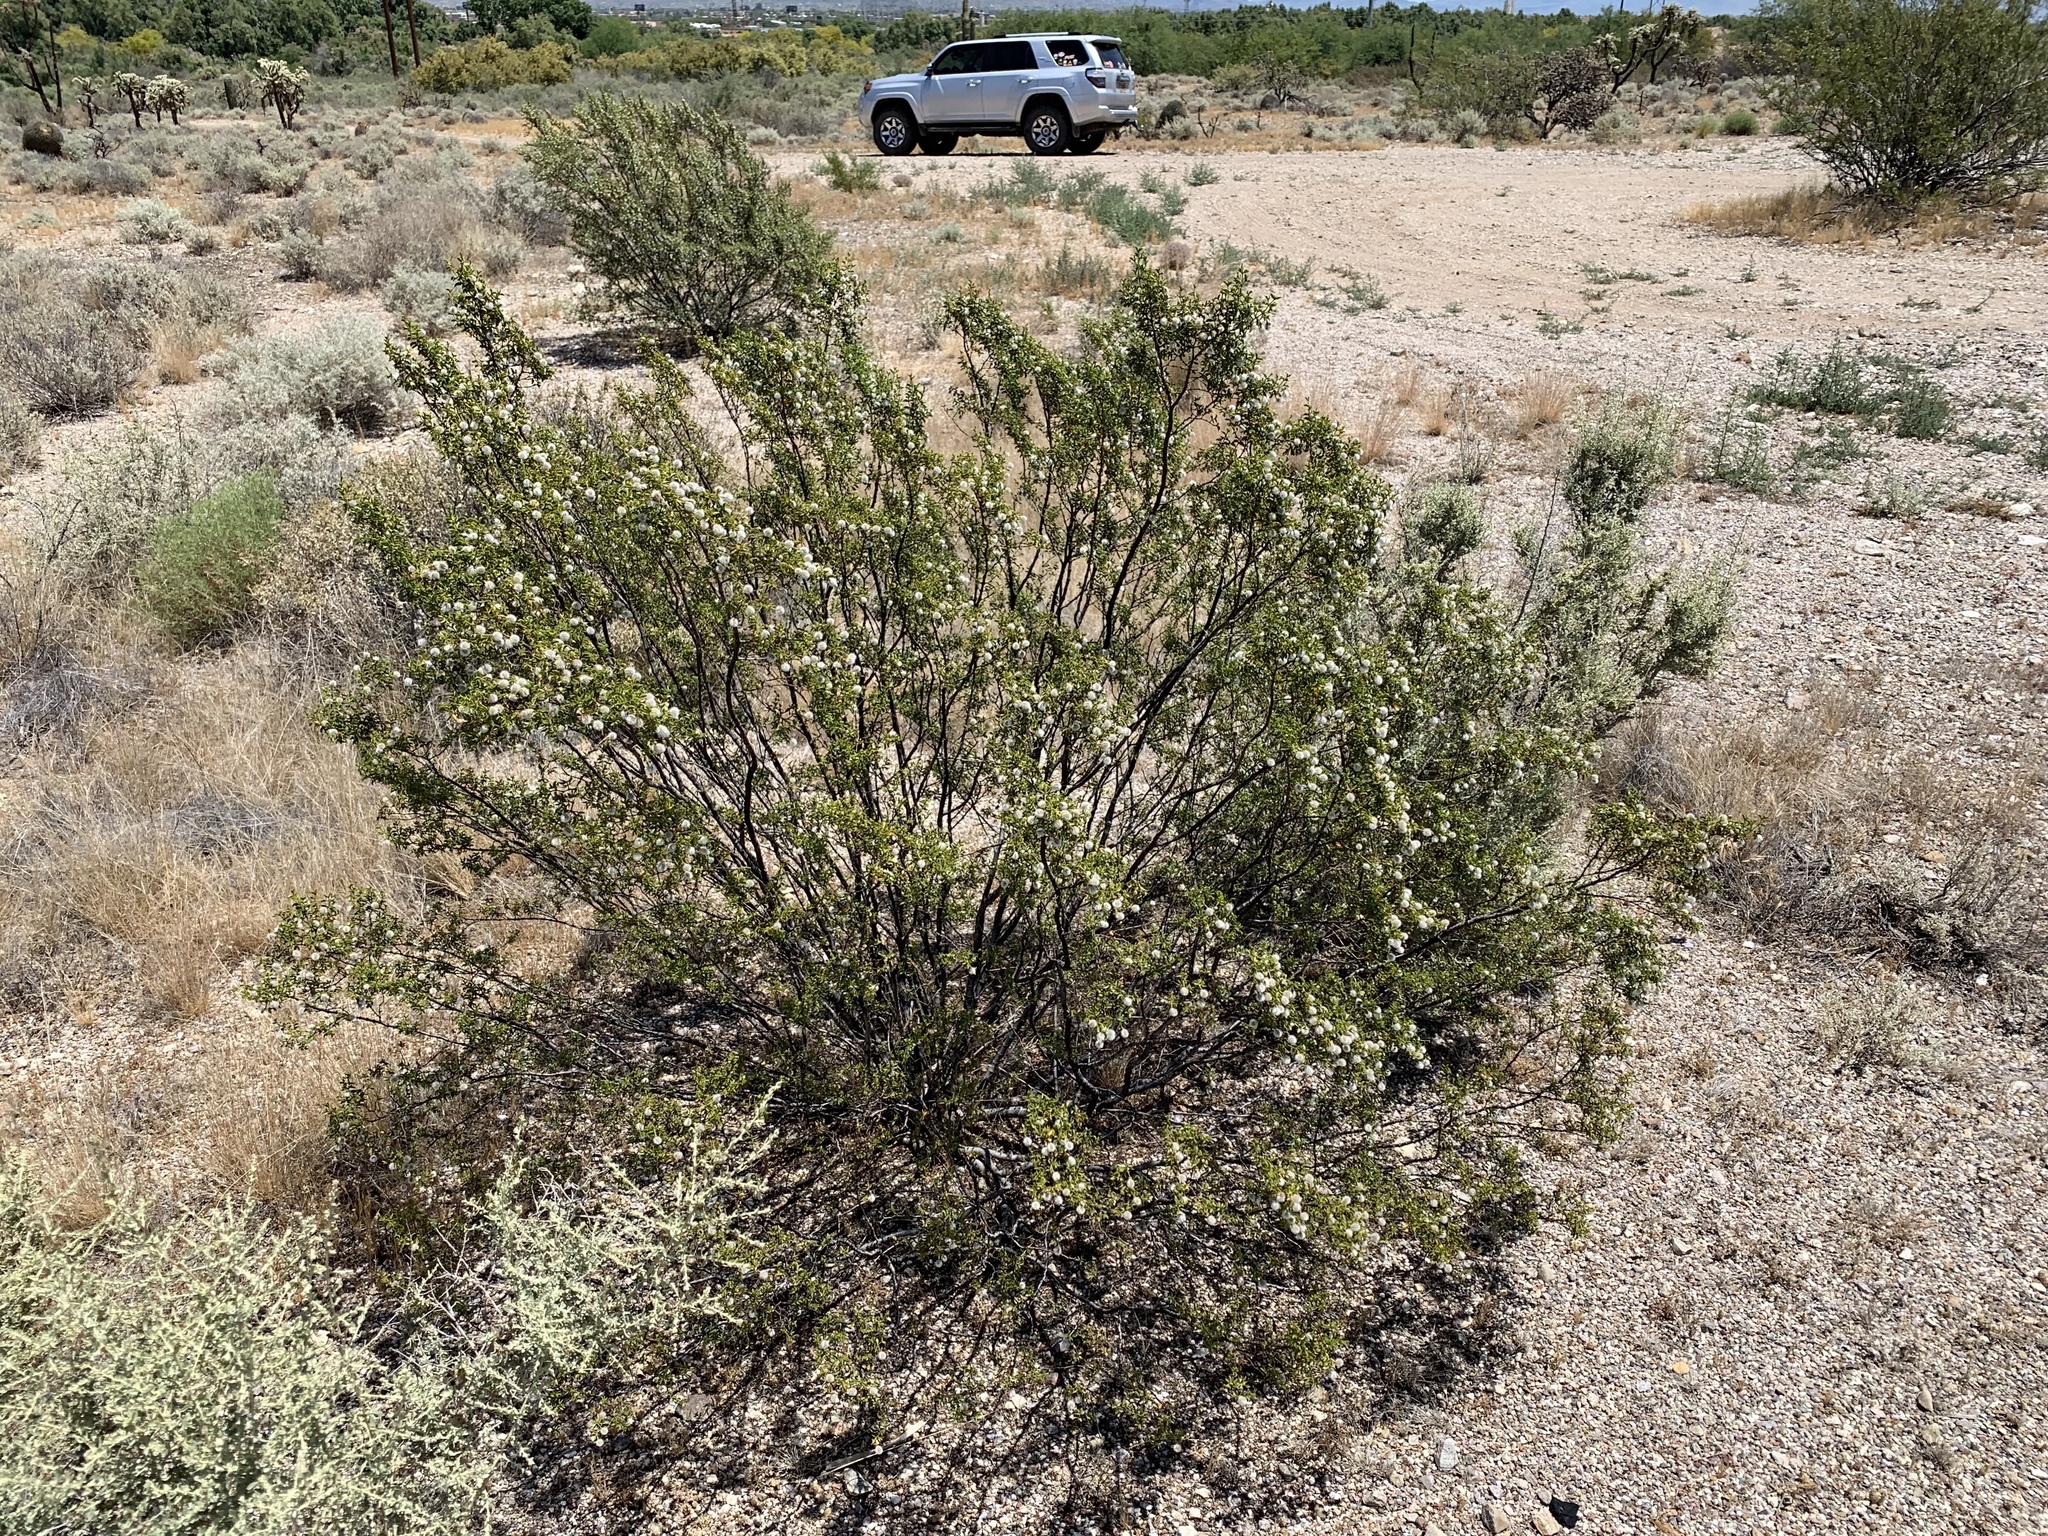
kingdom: Plantae
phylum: Tracheophyta
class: Magnoliopsida
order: Zygophyllales
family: Zygophyllaceae
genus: Larrea
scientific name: Larrea tridentata
